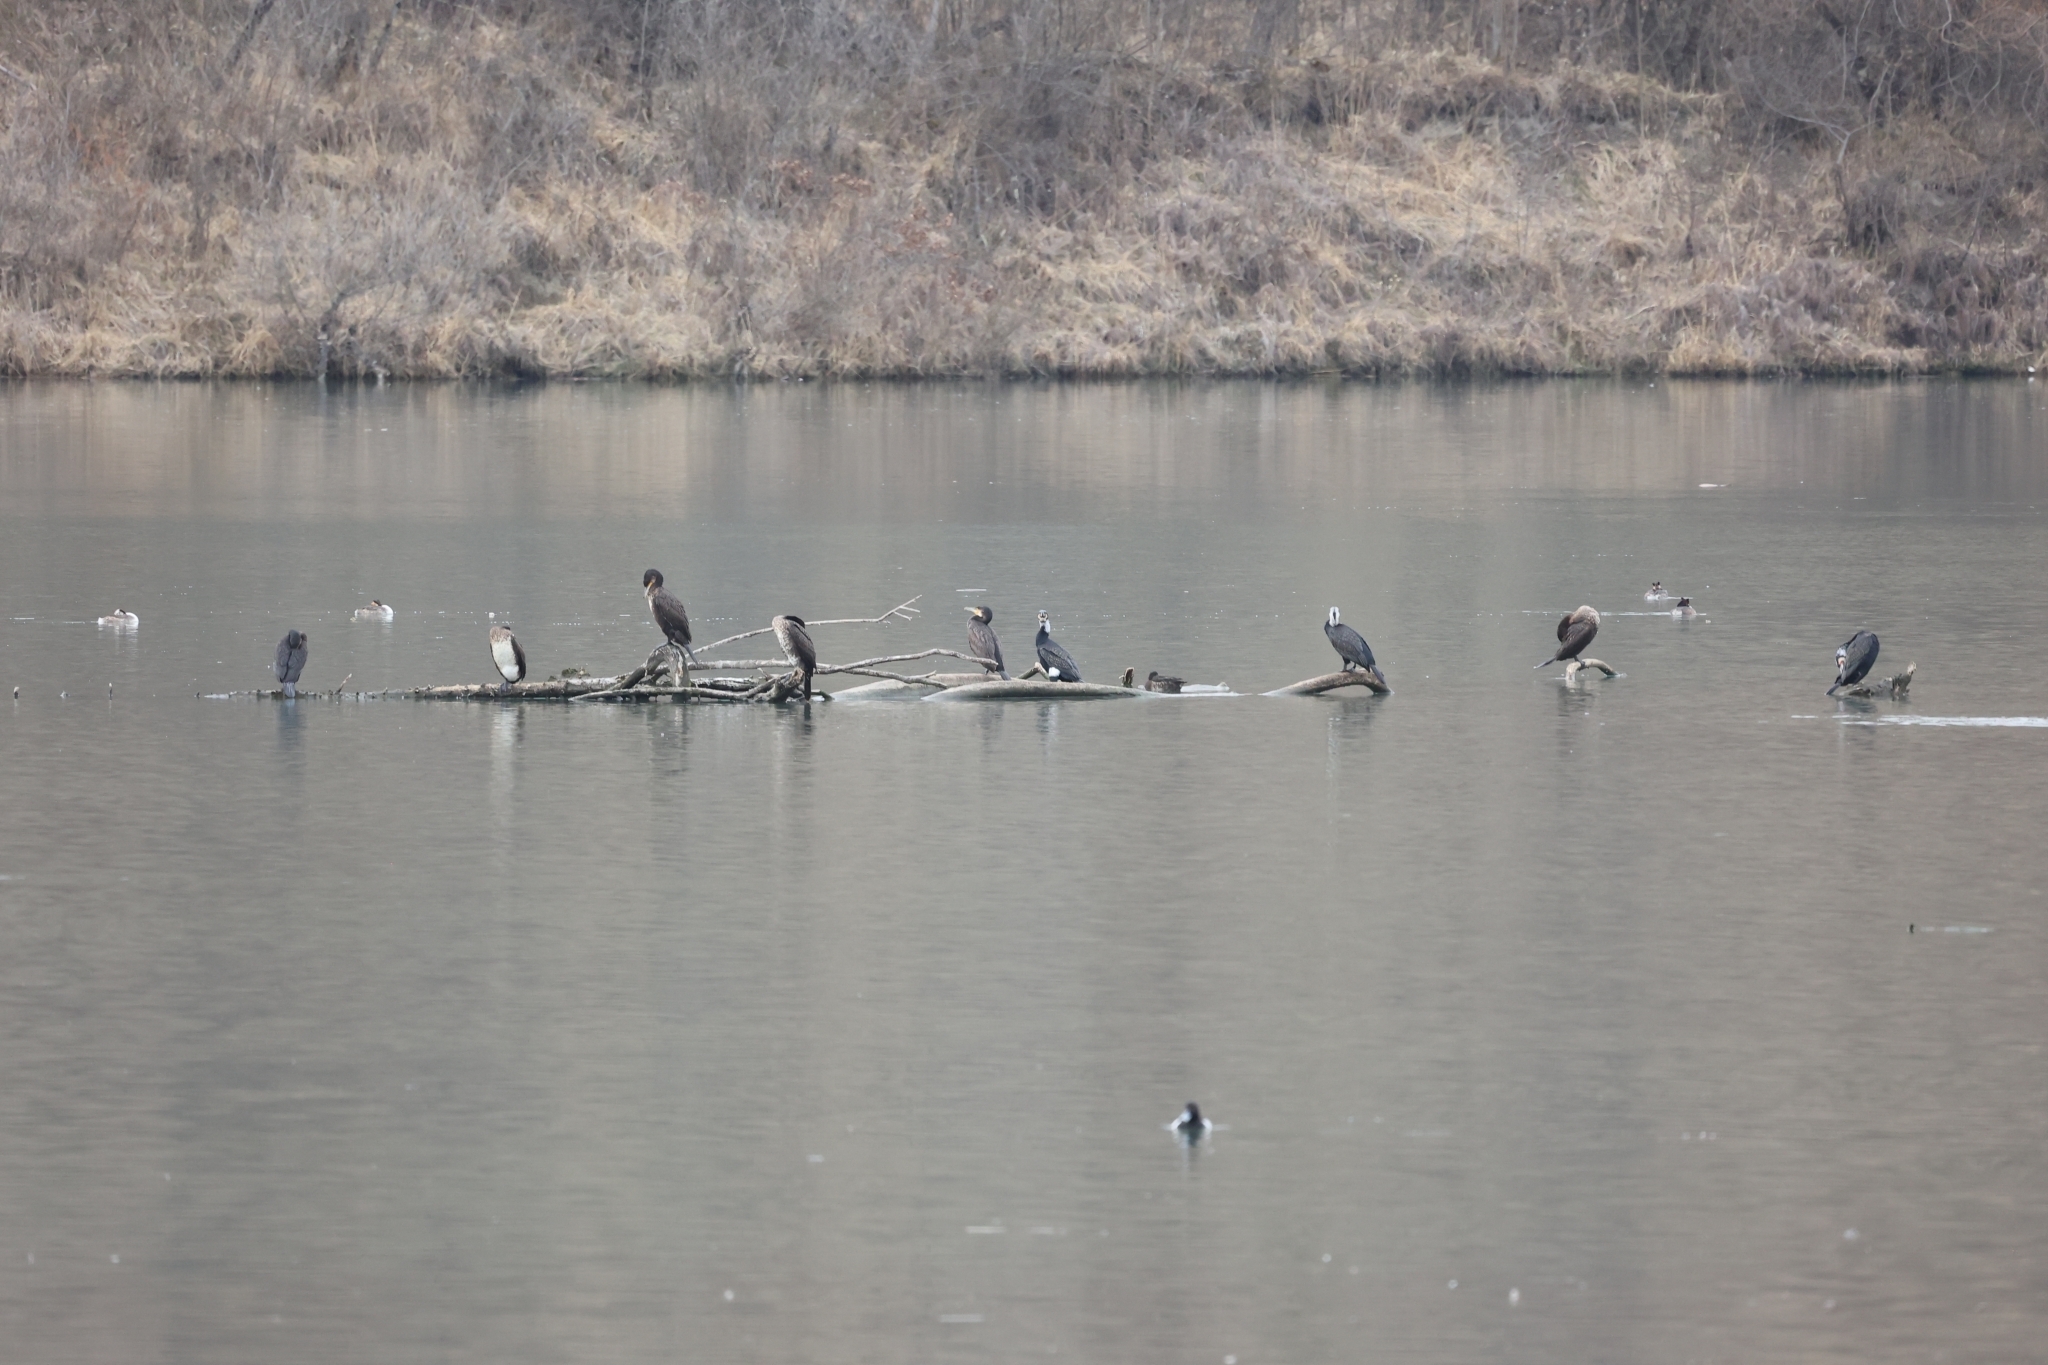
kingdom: Animalia
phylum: Chordata
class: Aves
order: Suliformes
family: Phalacrocoracidae
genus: Phalacrocorax
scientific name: Phalacrocorax carbo
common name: Great cormorant
